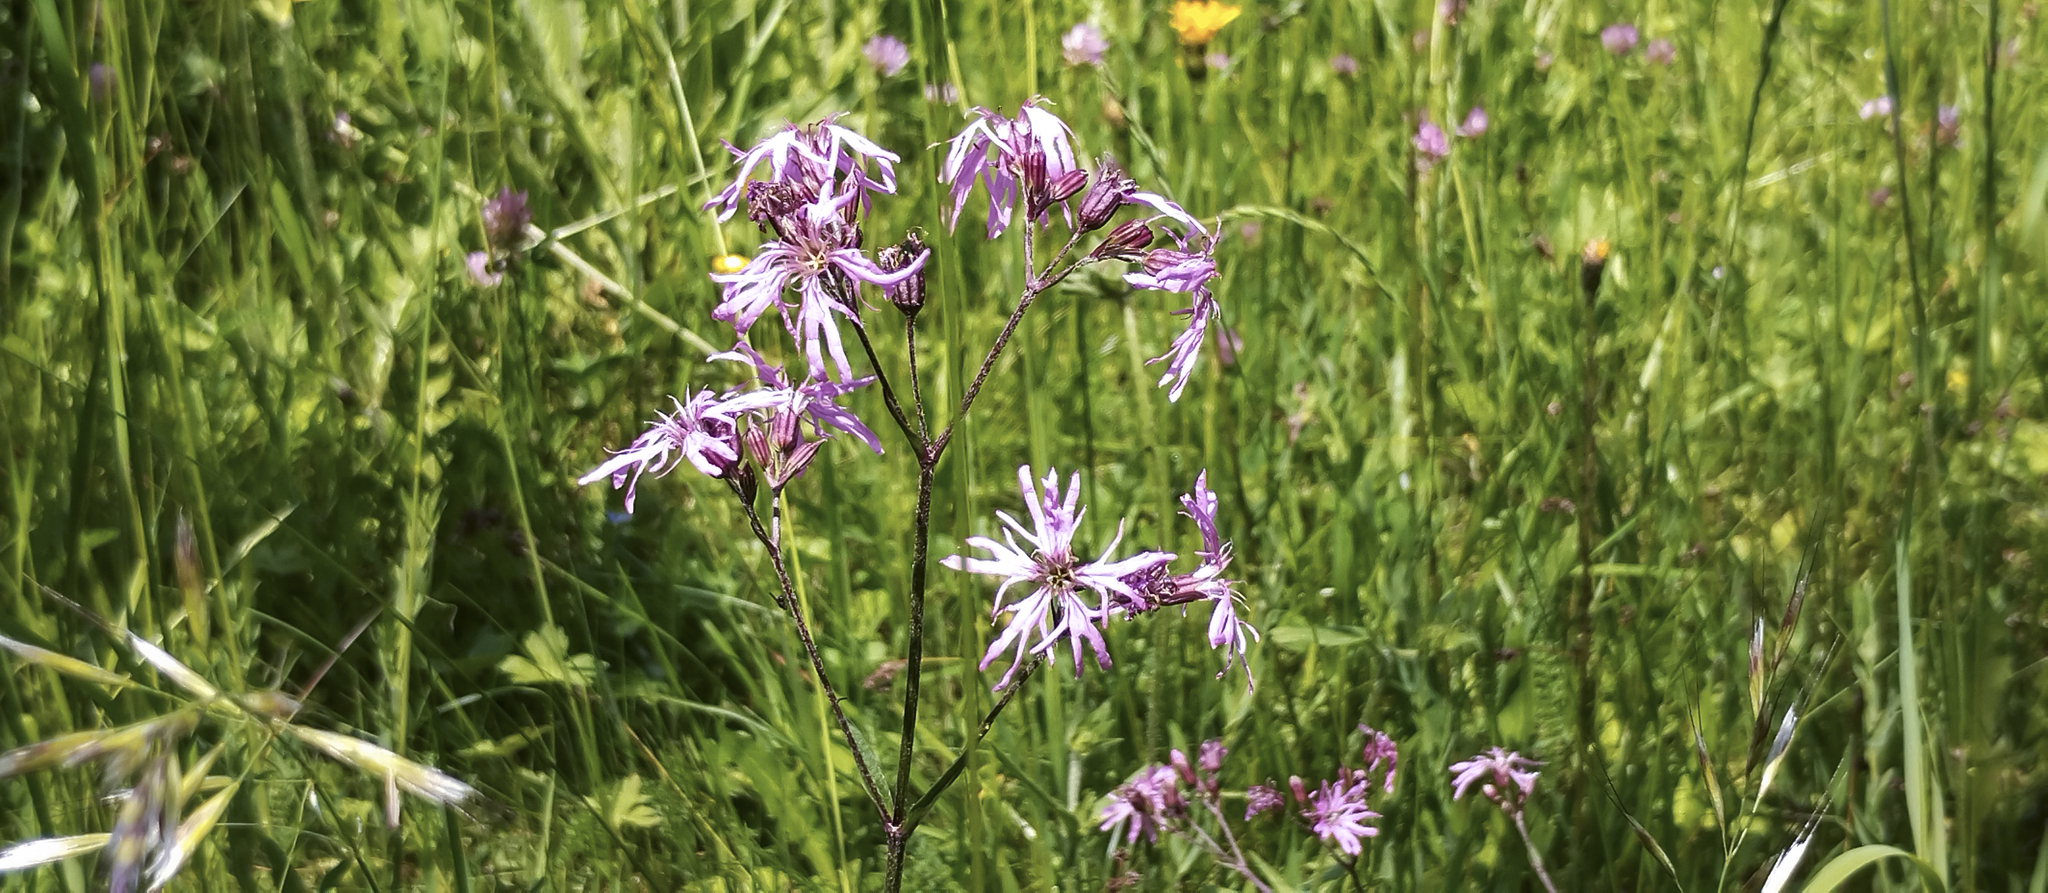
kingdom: Plantae
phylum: Tracheophyta
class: Magnoliopsida
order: Caryophyllales
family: Caryophyllaceae
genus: Silene
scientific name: Silene flos-cuculi
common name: Ragged-robin
